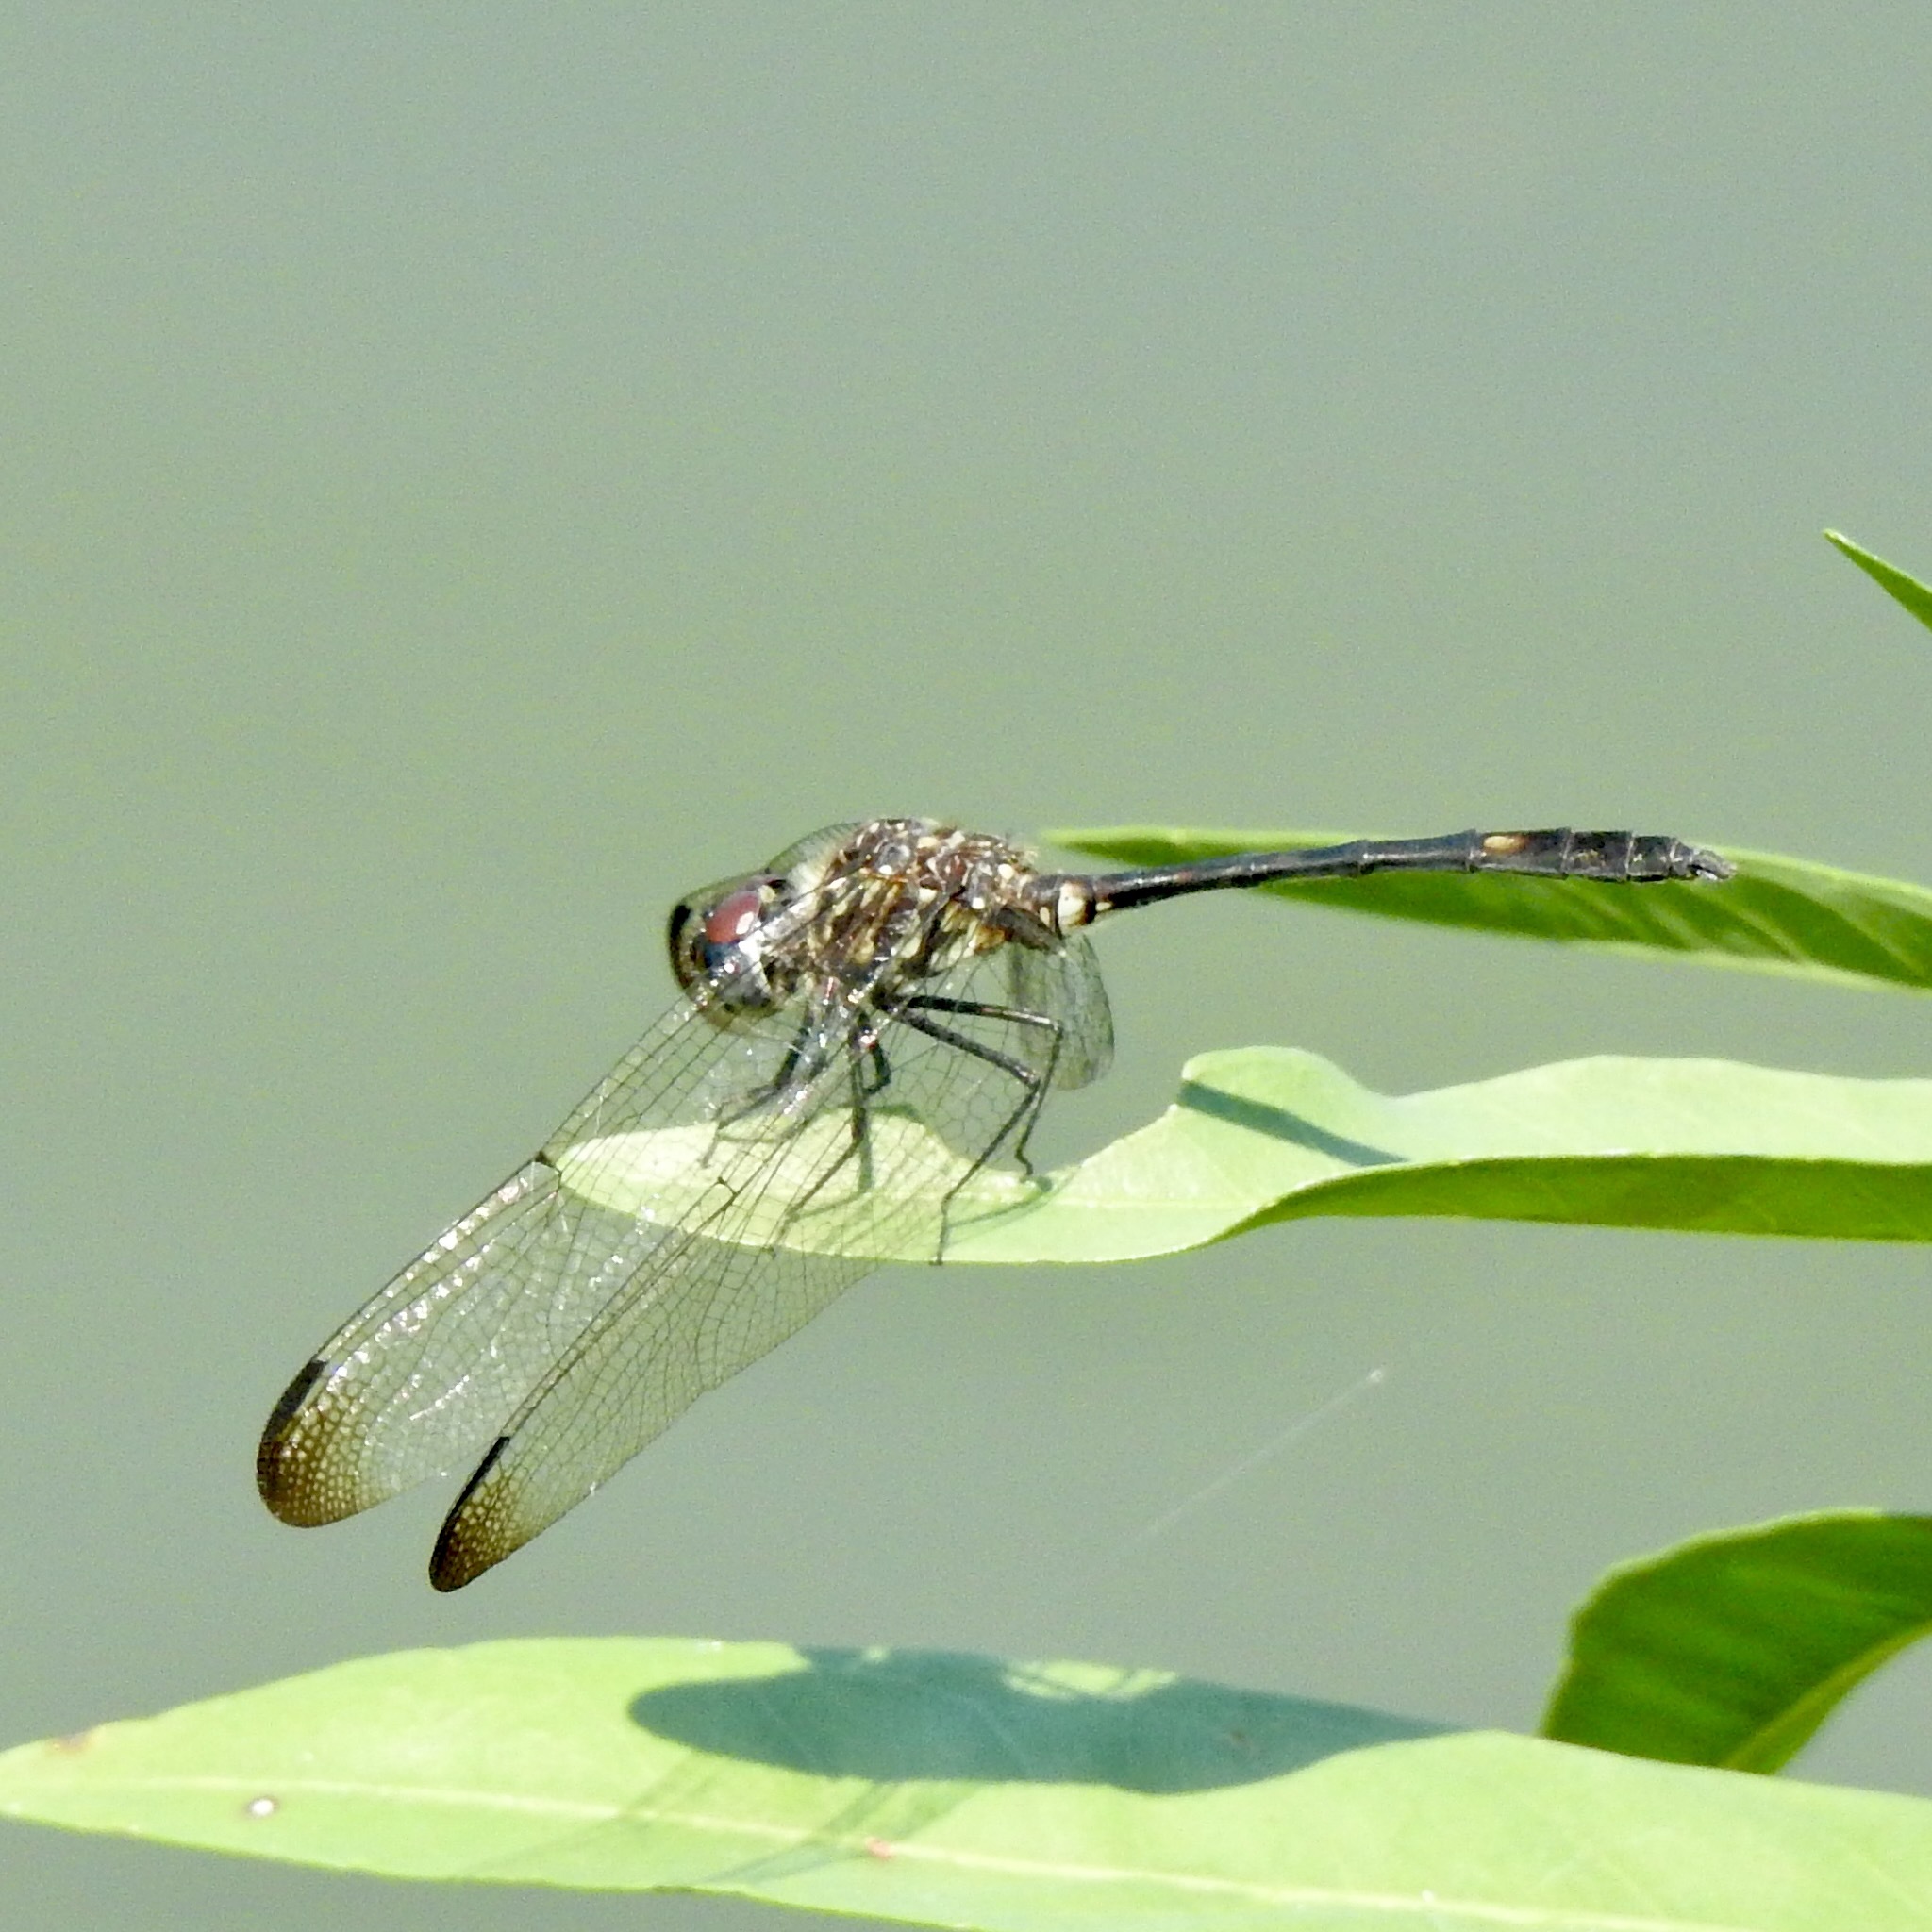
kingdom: Animalia
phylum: Arthropoda
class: Insecta
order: Odonata
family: Libellulidae
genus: Dythemis
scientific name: Dythemis velox
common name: Swift setwing
